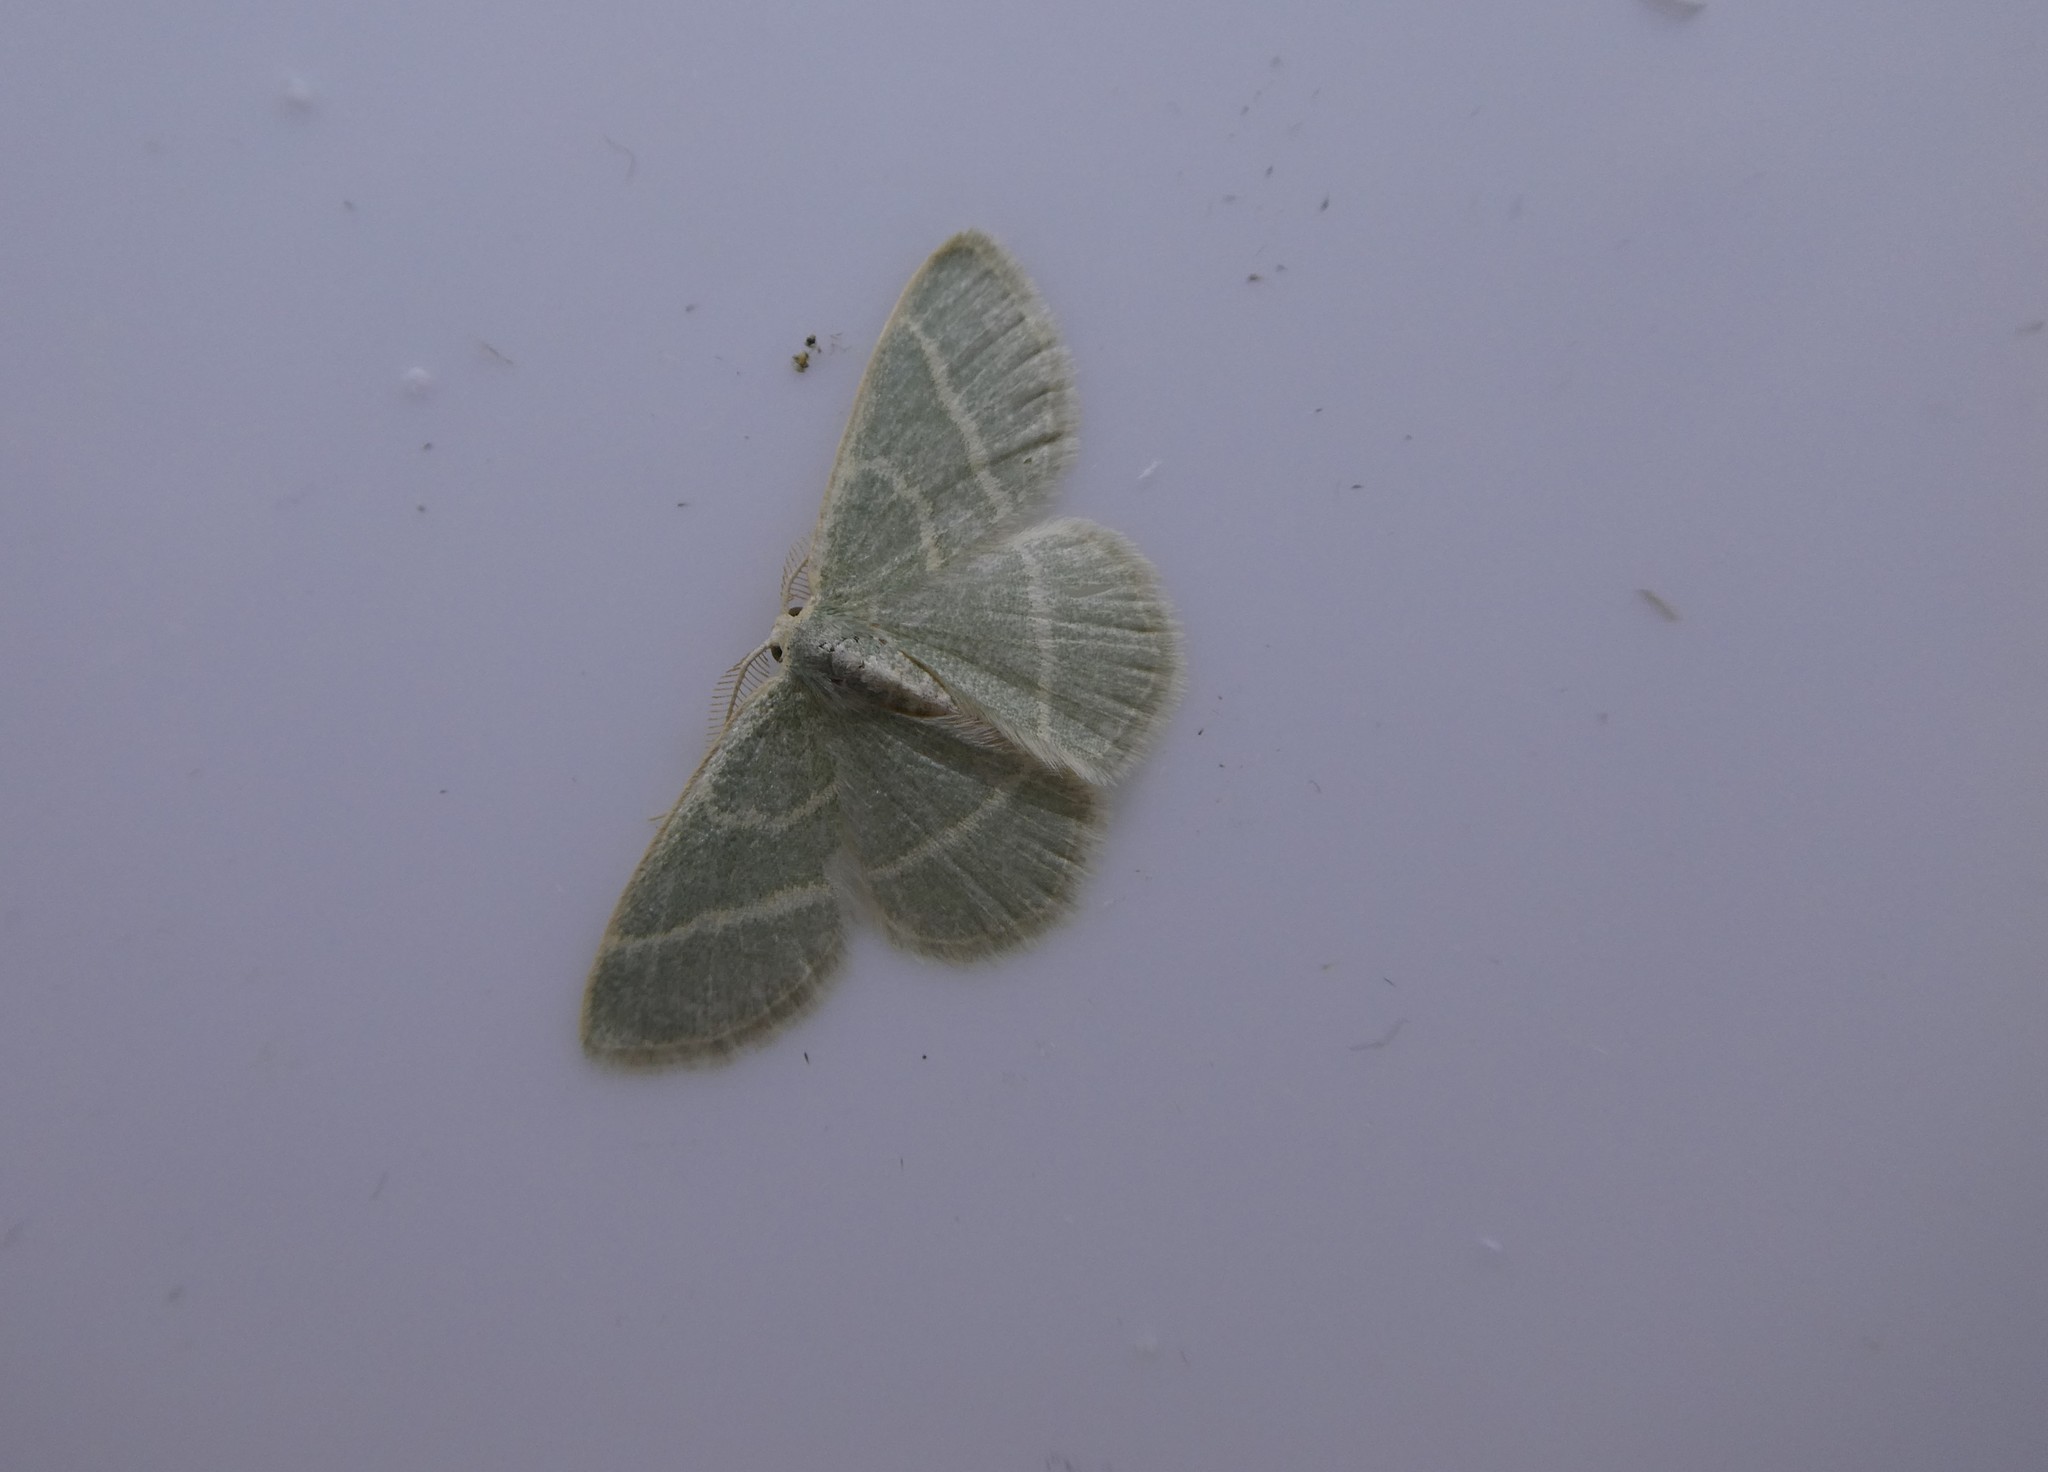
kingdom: Animalia
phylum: Arthropoda
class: Insecta
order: Lepidoptera
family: Geometridae
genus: Chlorochlamys
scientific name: Chlorochlamys chloroleucaria
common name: Blackberry looper
